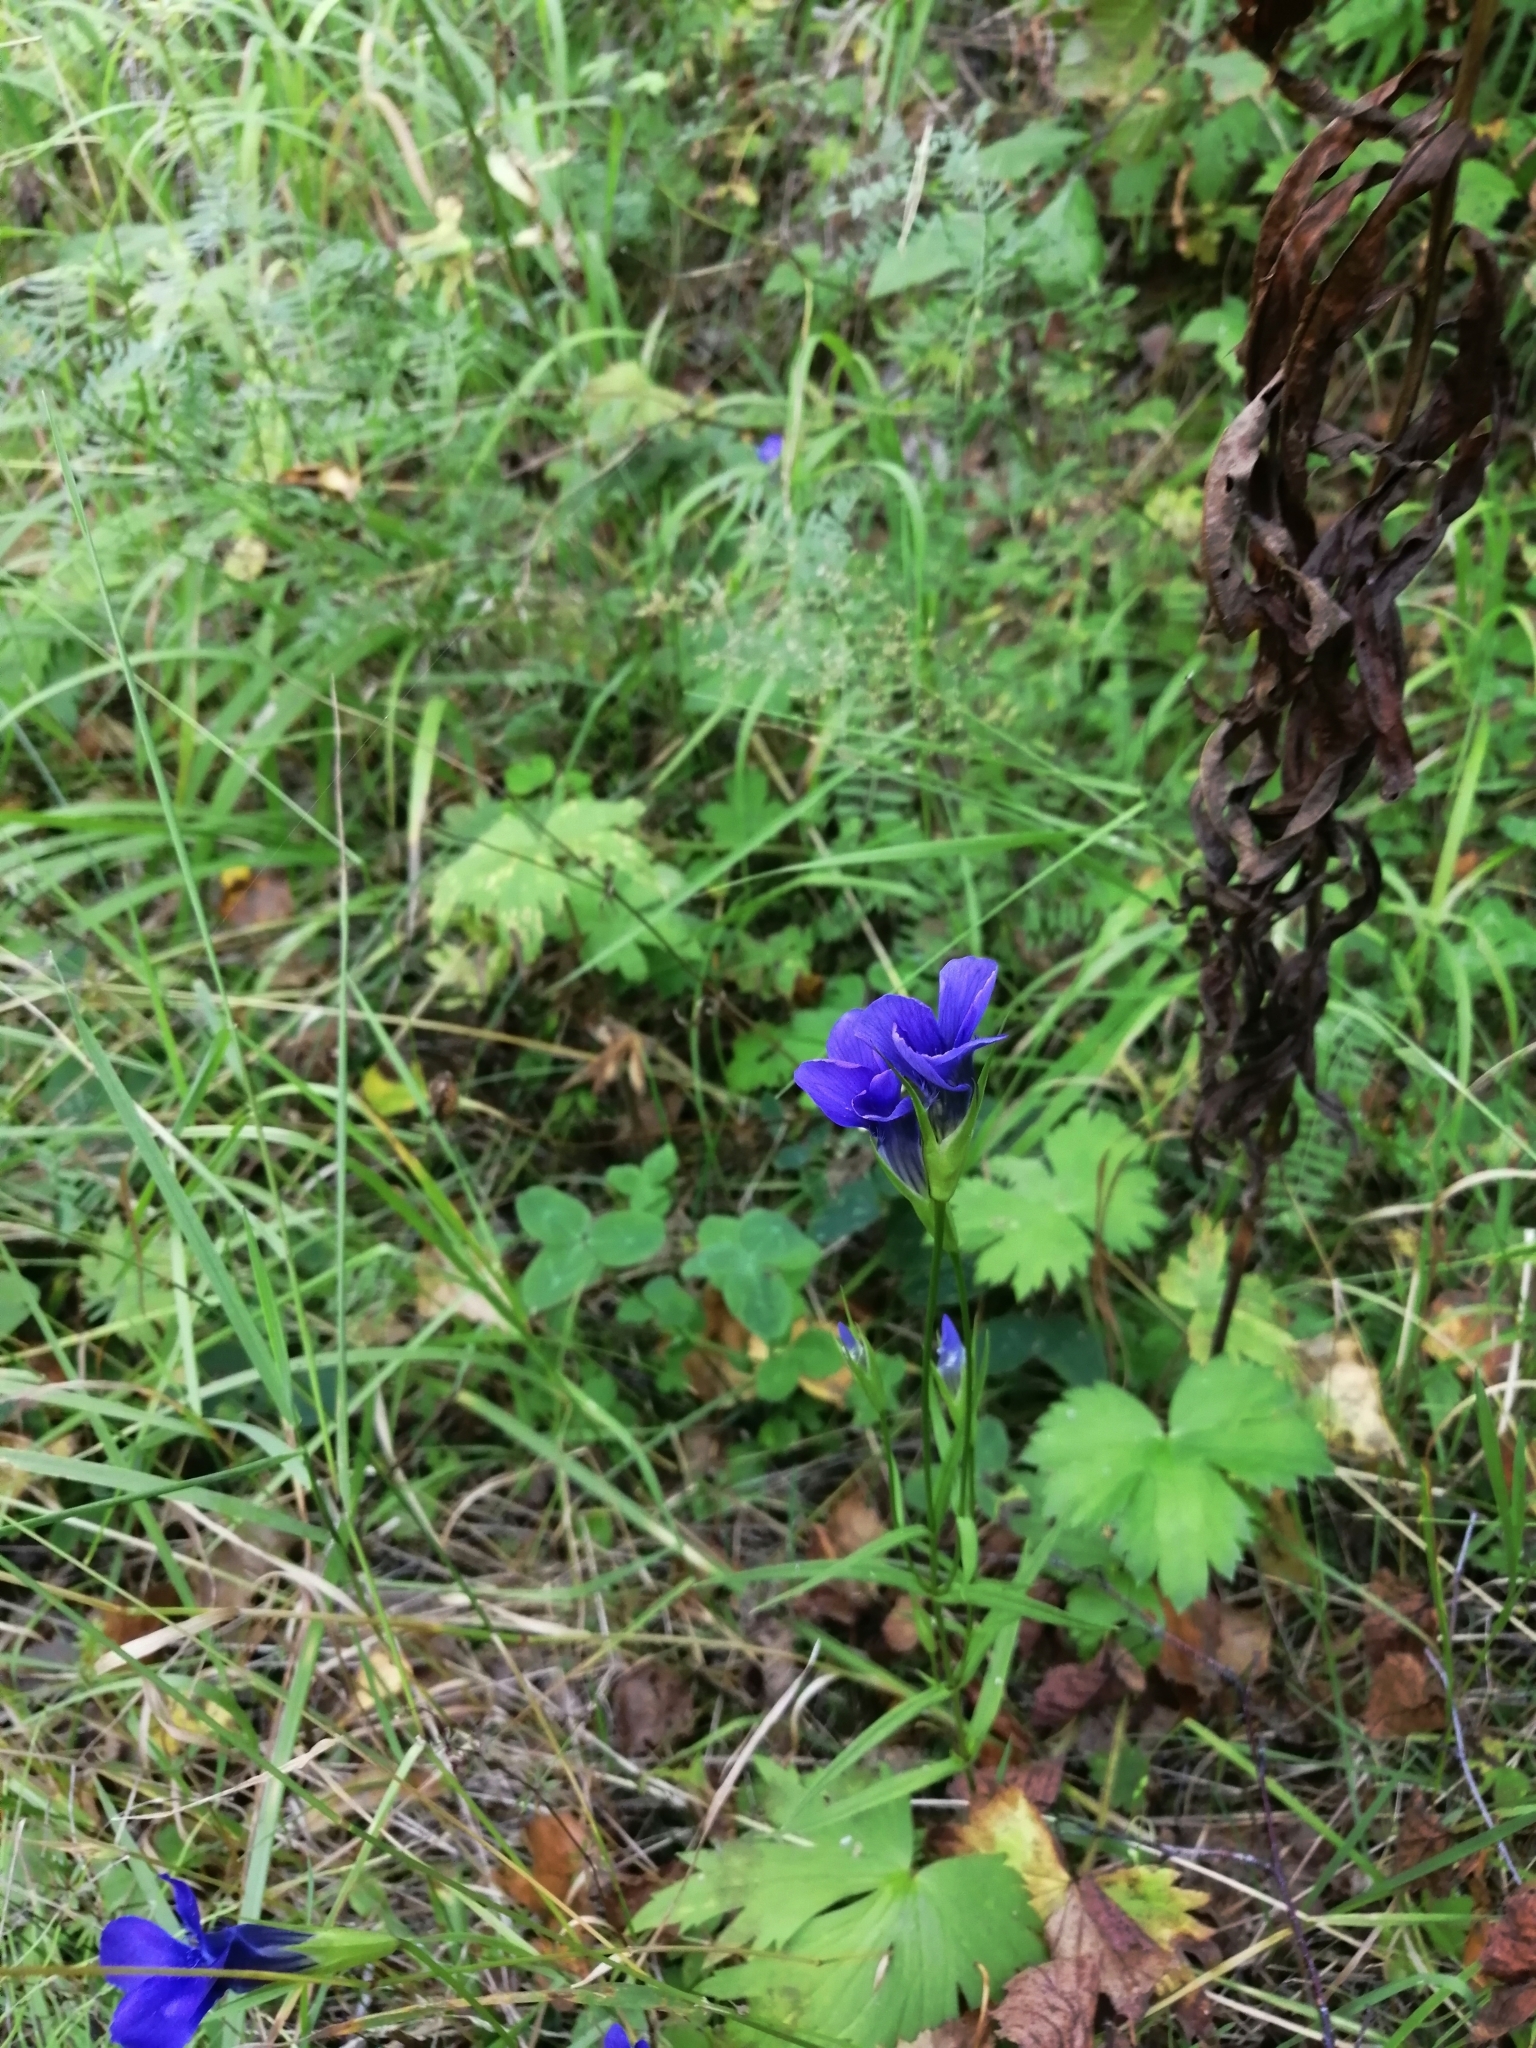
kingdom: Plantae
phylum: Tracheophyta
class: Magnoliopsida
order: Gentianales
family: Gentianaceae
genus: Gentianopsis
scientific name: Gentianopsis barbata
